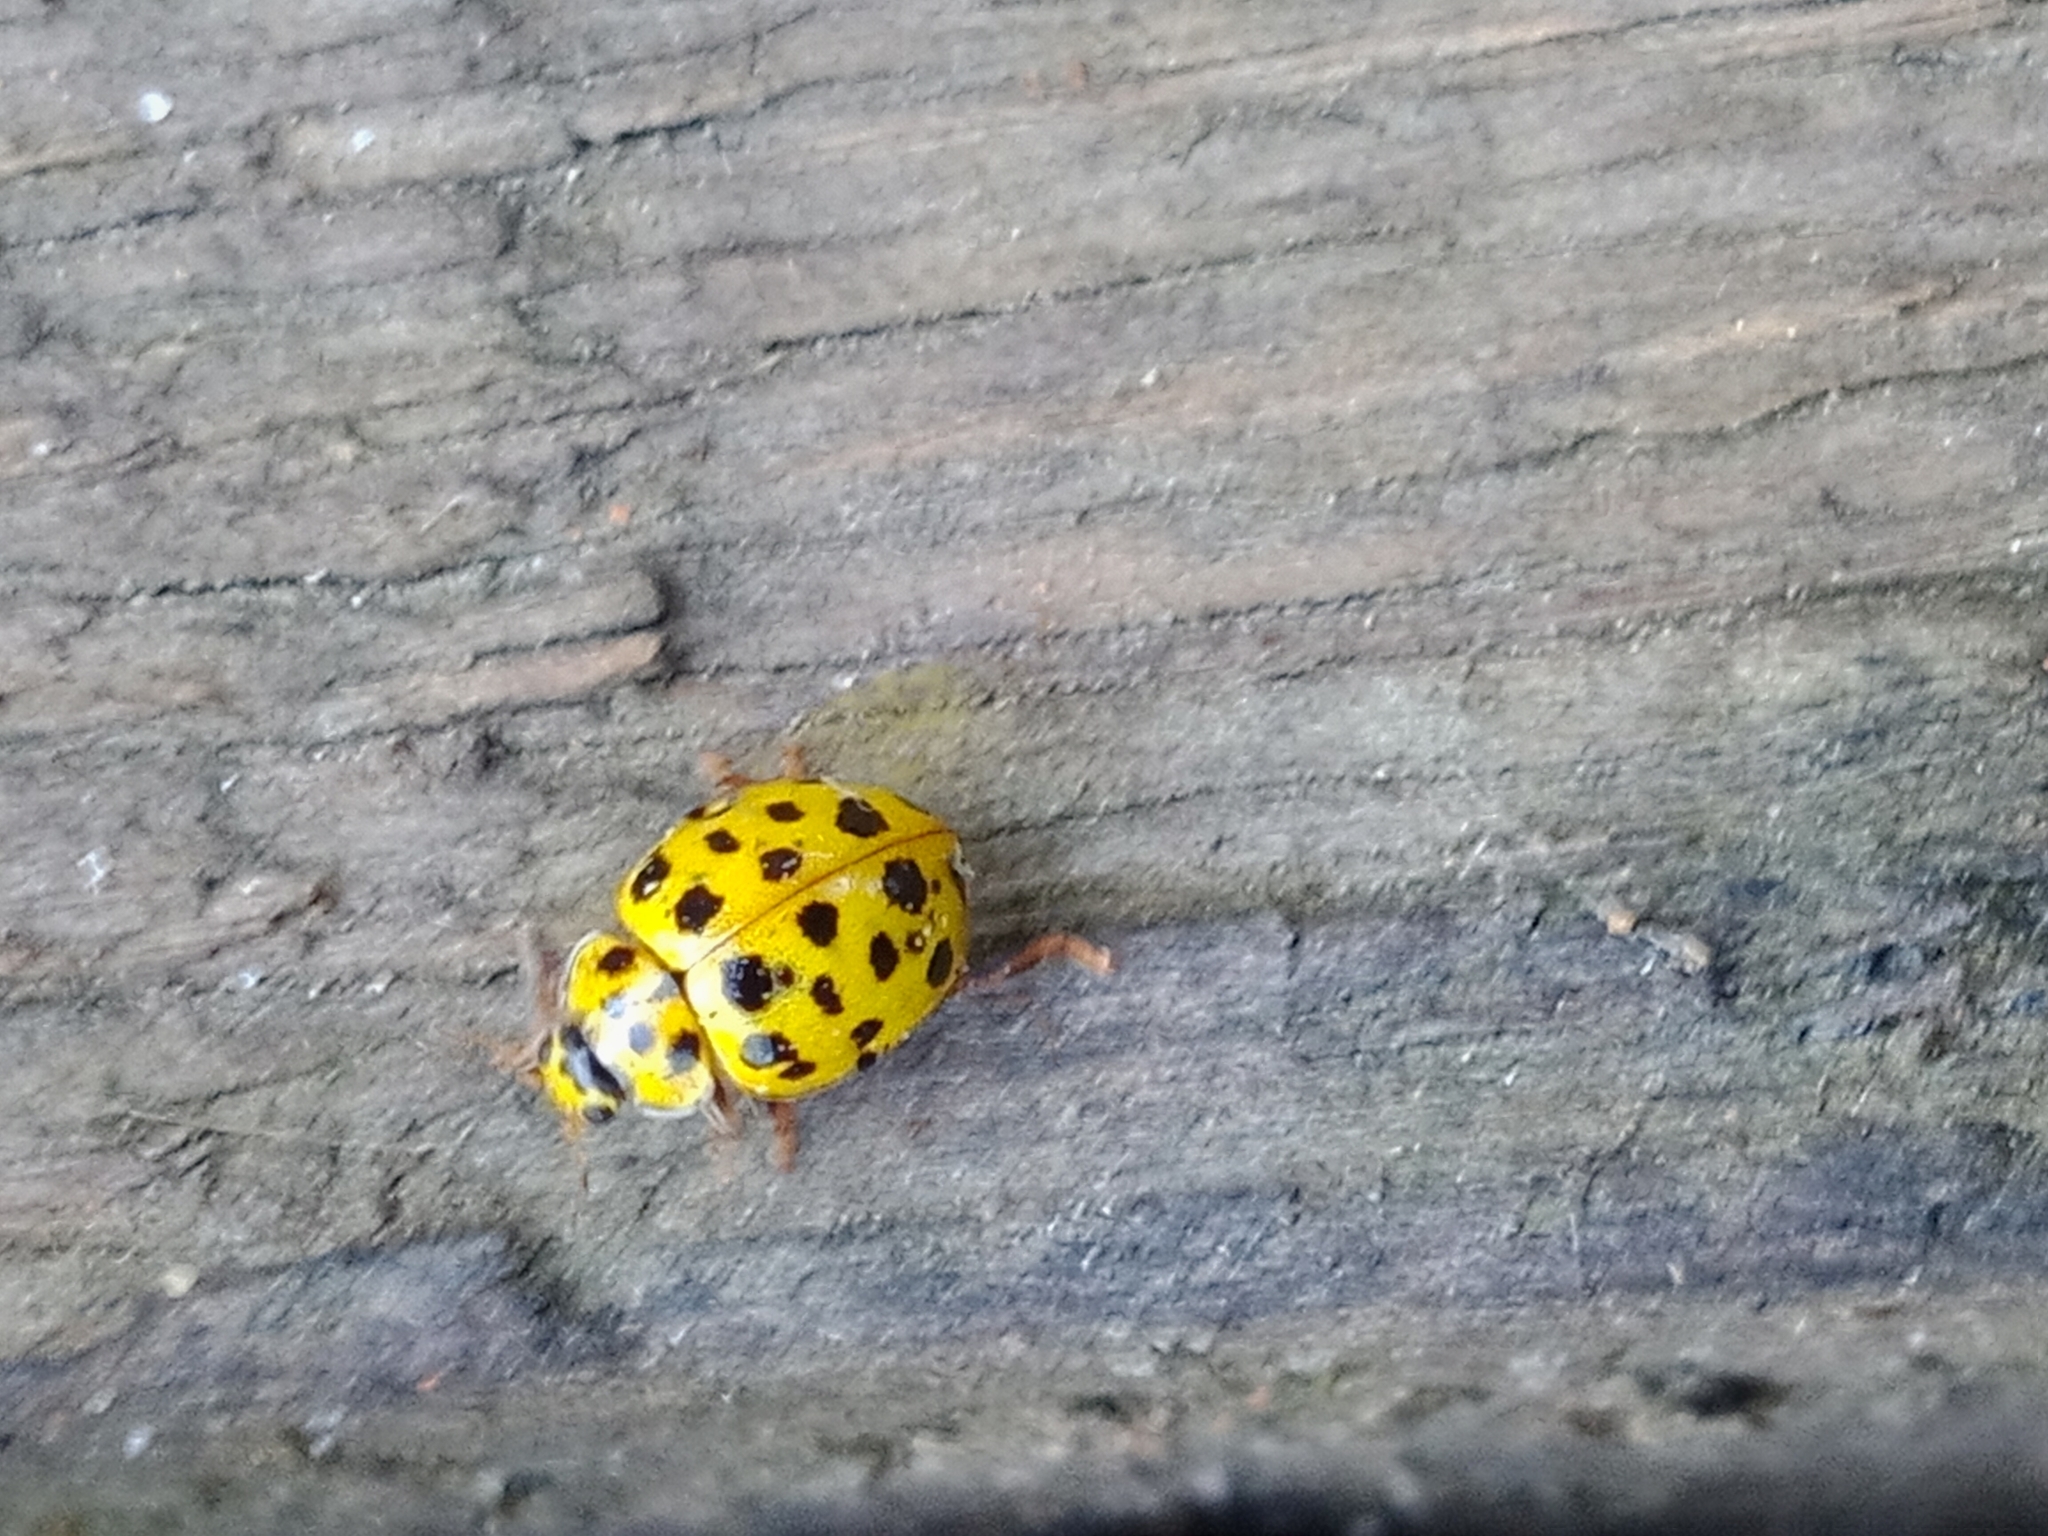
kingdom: Animalia
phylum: Arthropoda
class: Insecta
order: Coleoptera
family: Coccinellidae
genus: Psyllobora
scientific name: Psyllobora vigintiduopunctata
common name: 22-spot ladybird
